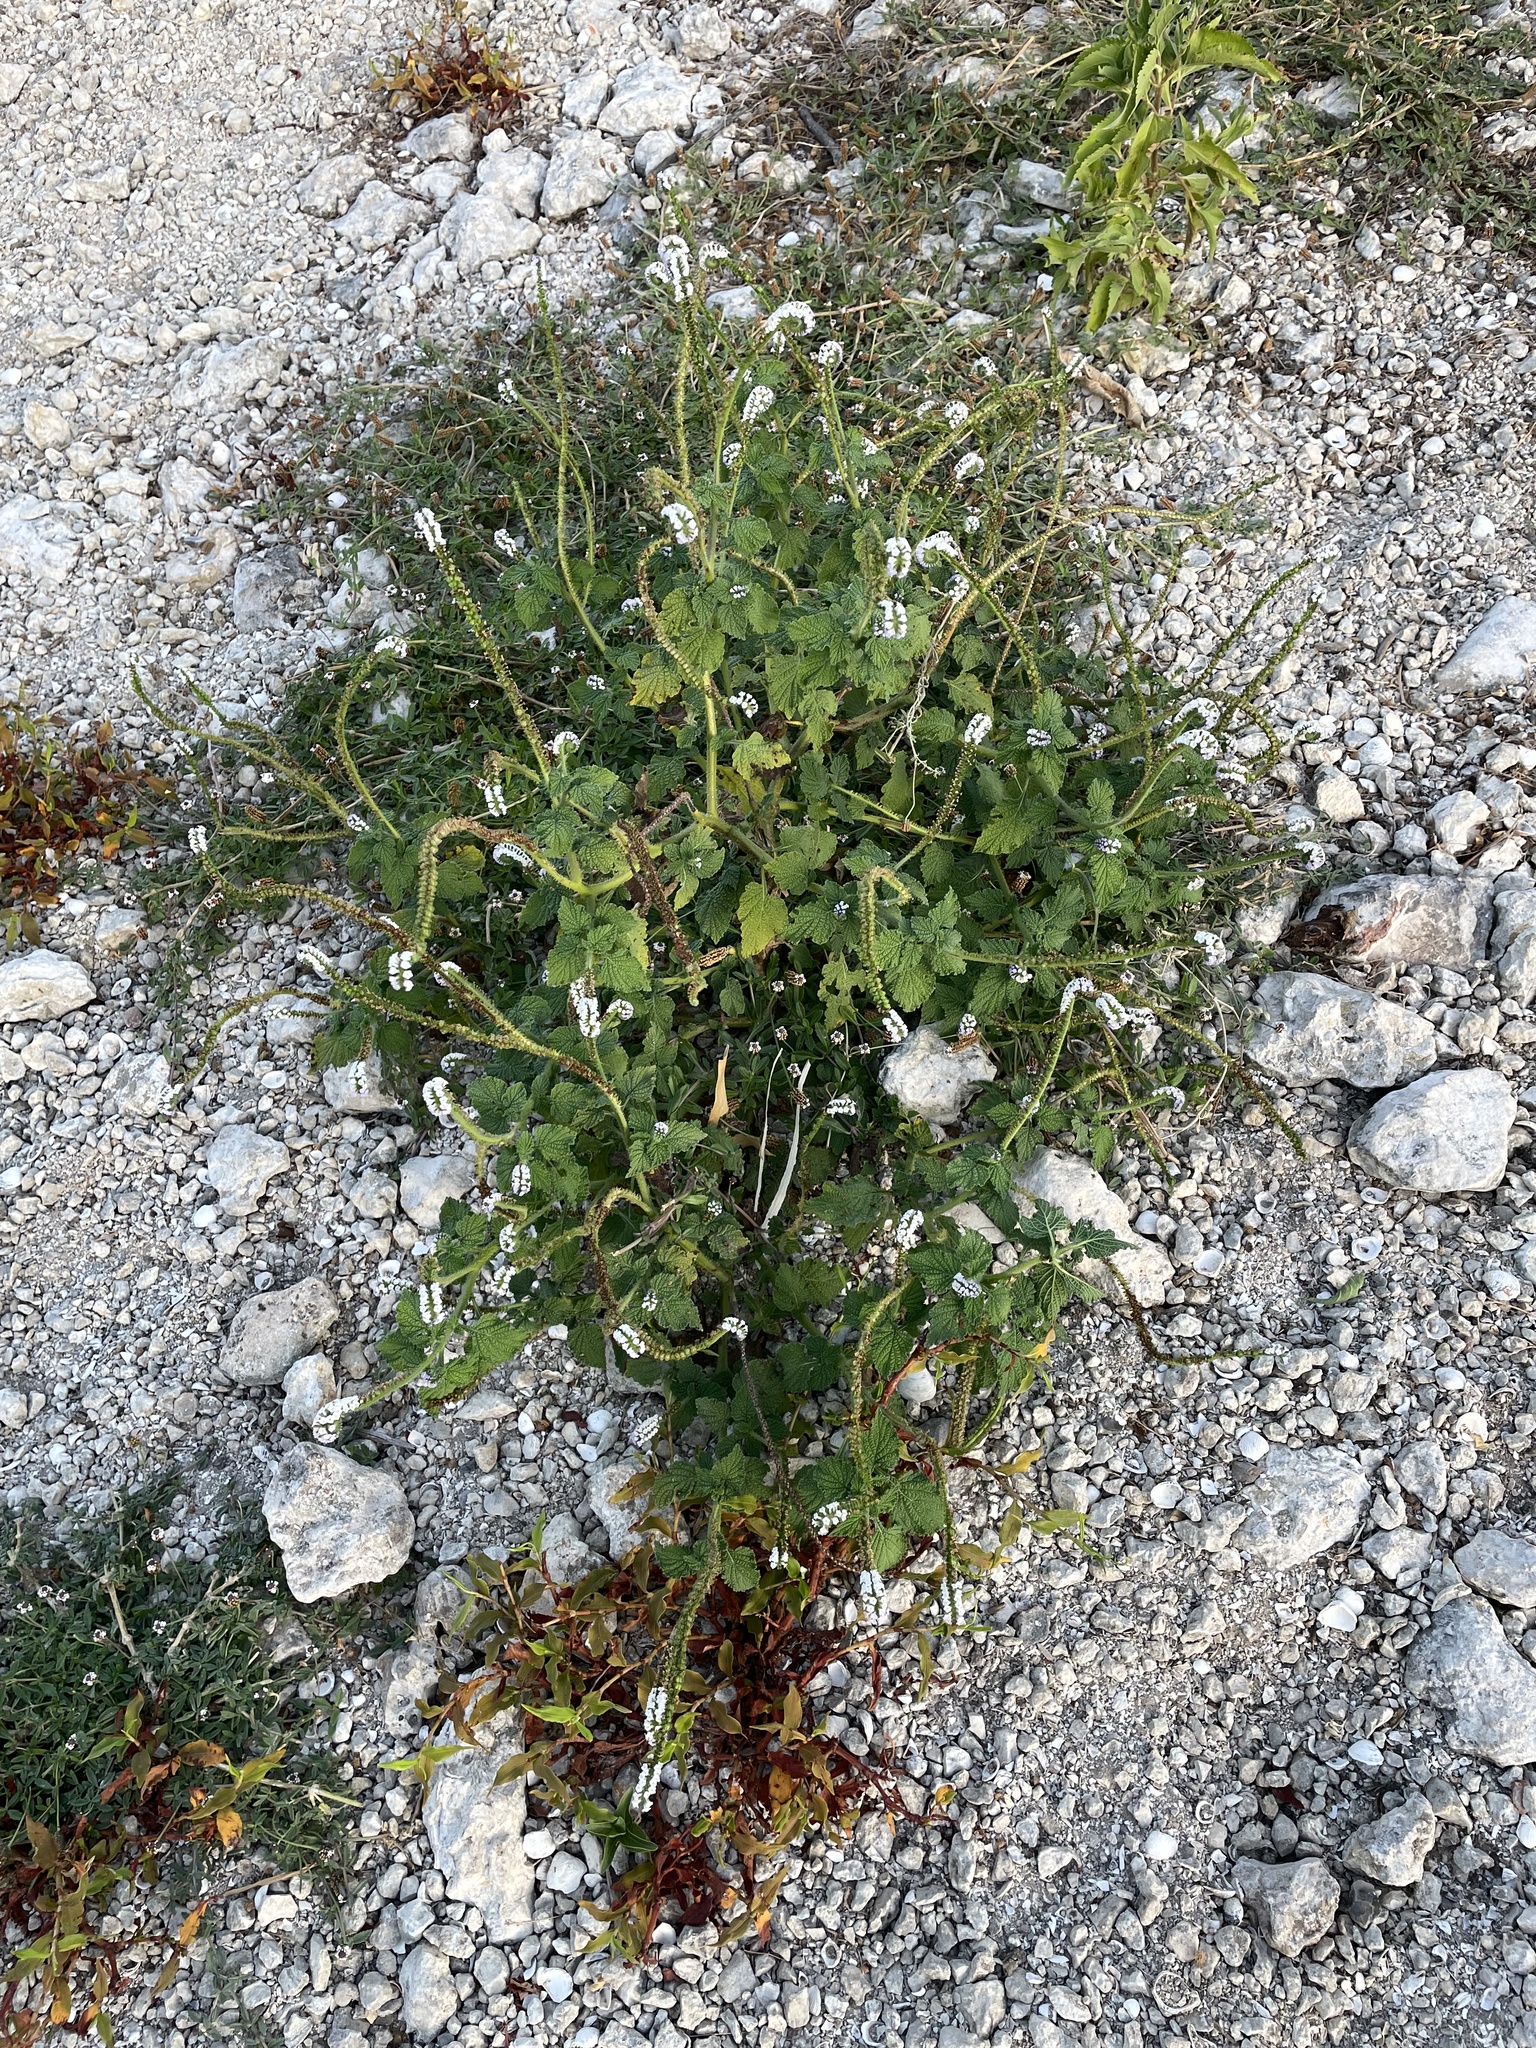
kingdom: Plantae
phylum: Tracheophyta
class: Magnoliopsida
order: Boraginales
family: Heliotropiaceae
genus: Heliotropium
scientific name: Heliotropium indicum
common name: Indian heliotrope
